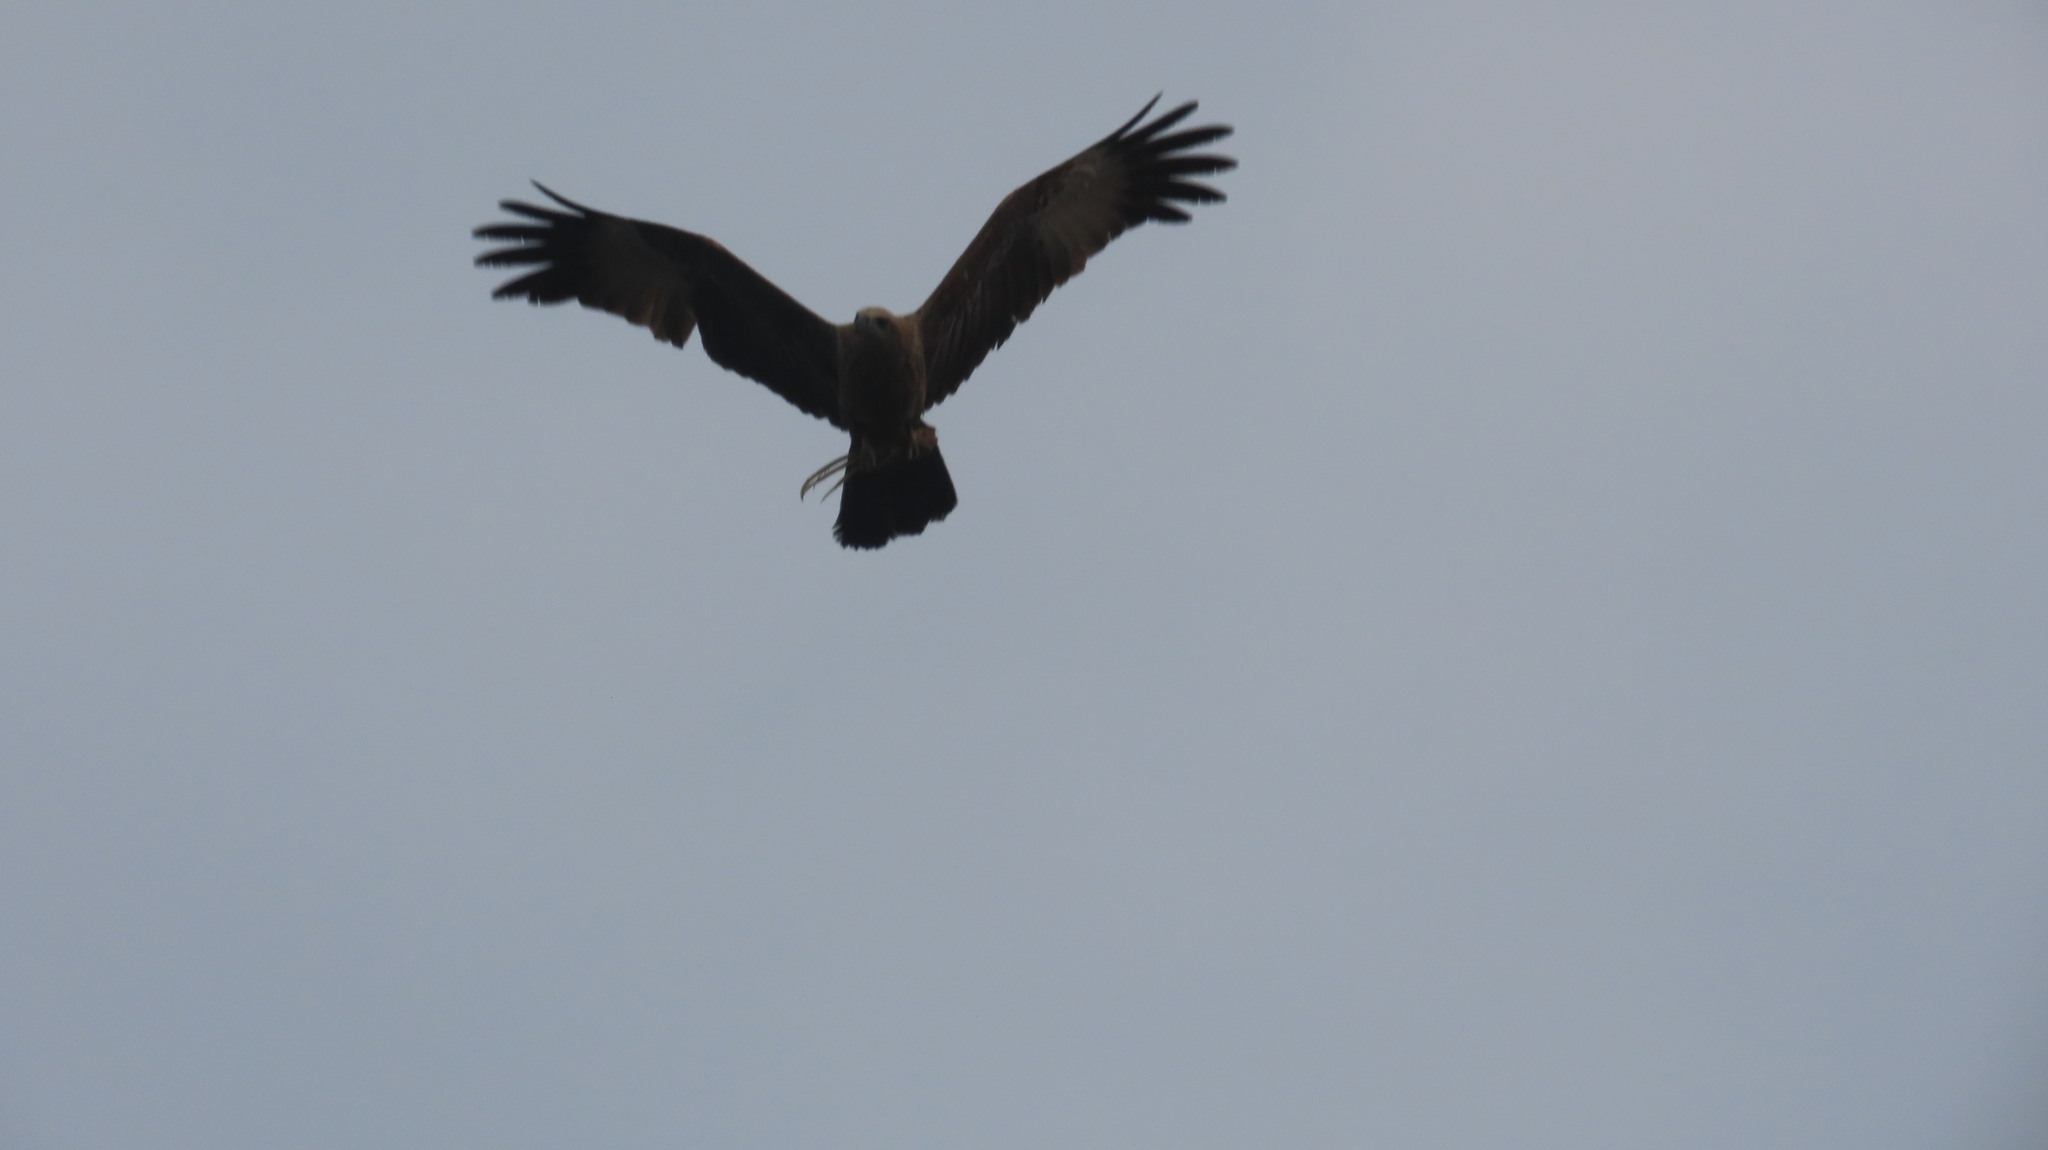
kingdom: Animalia
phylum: Chordata
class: Aves
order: Accipitriformes
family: Accipitridae
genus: Haliastur
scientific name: Haliastur indus
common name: Brahminy kite
